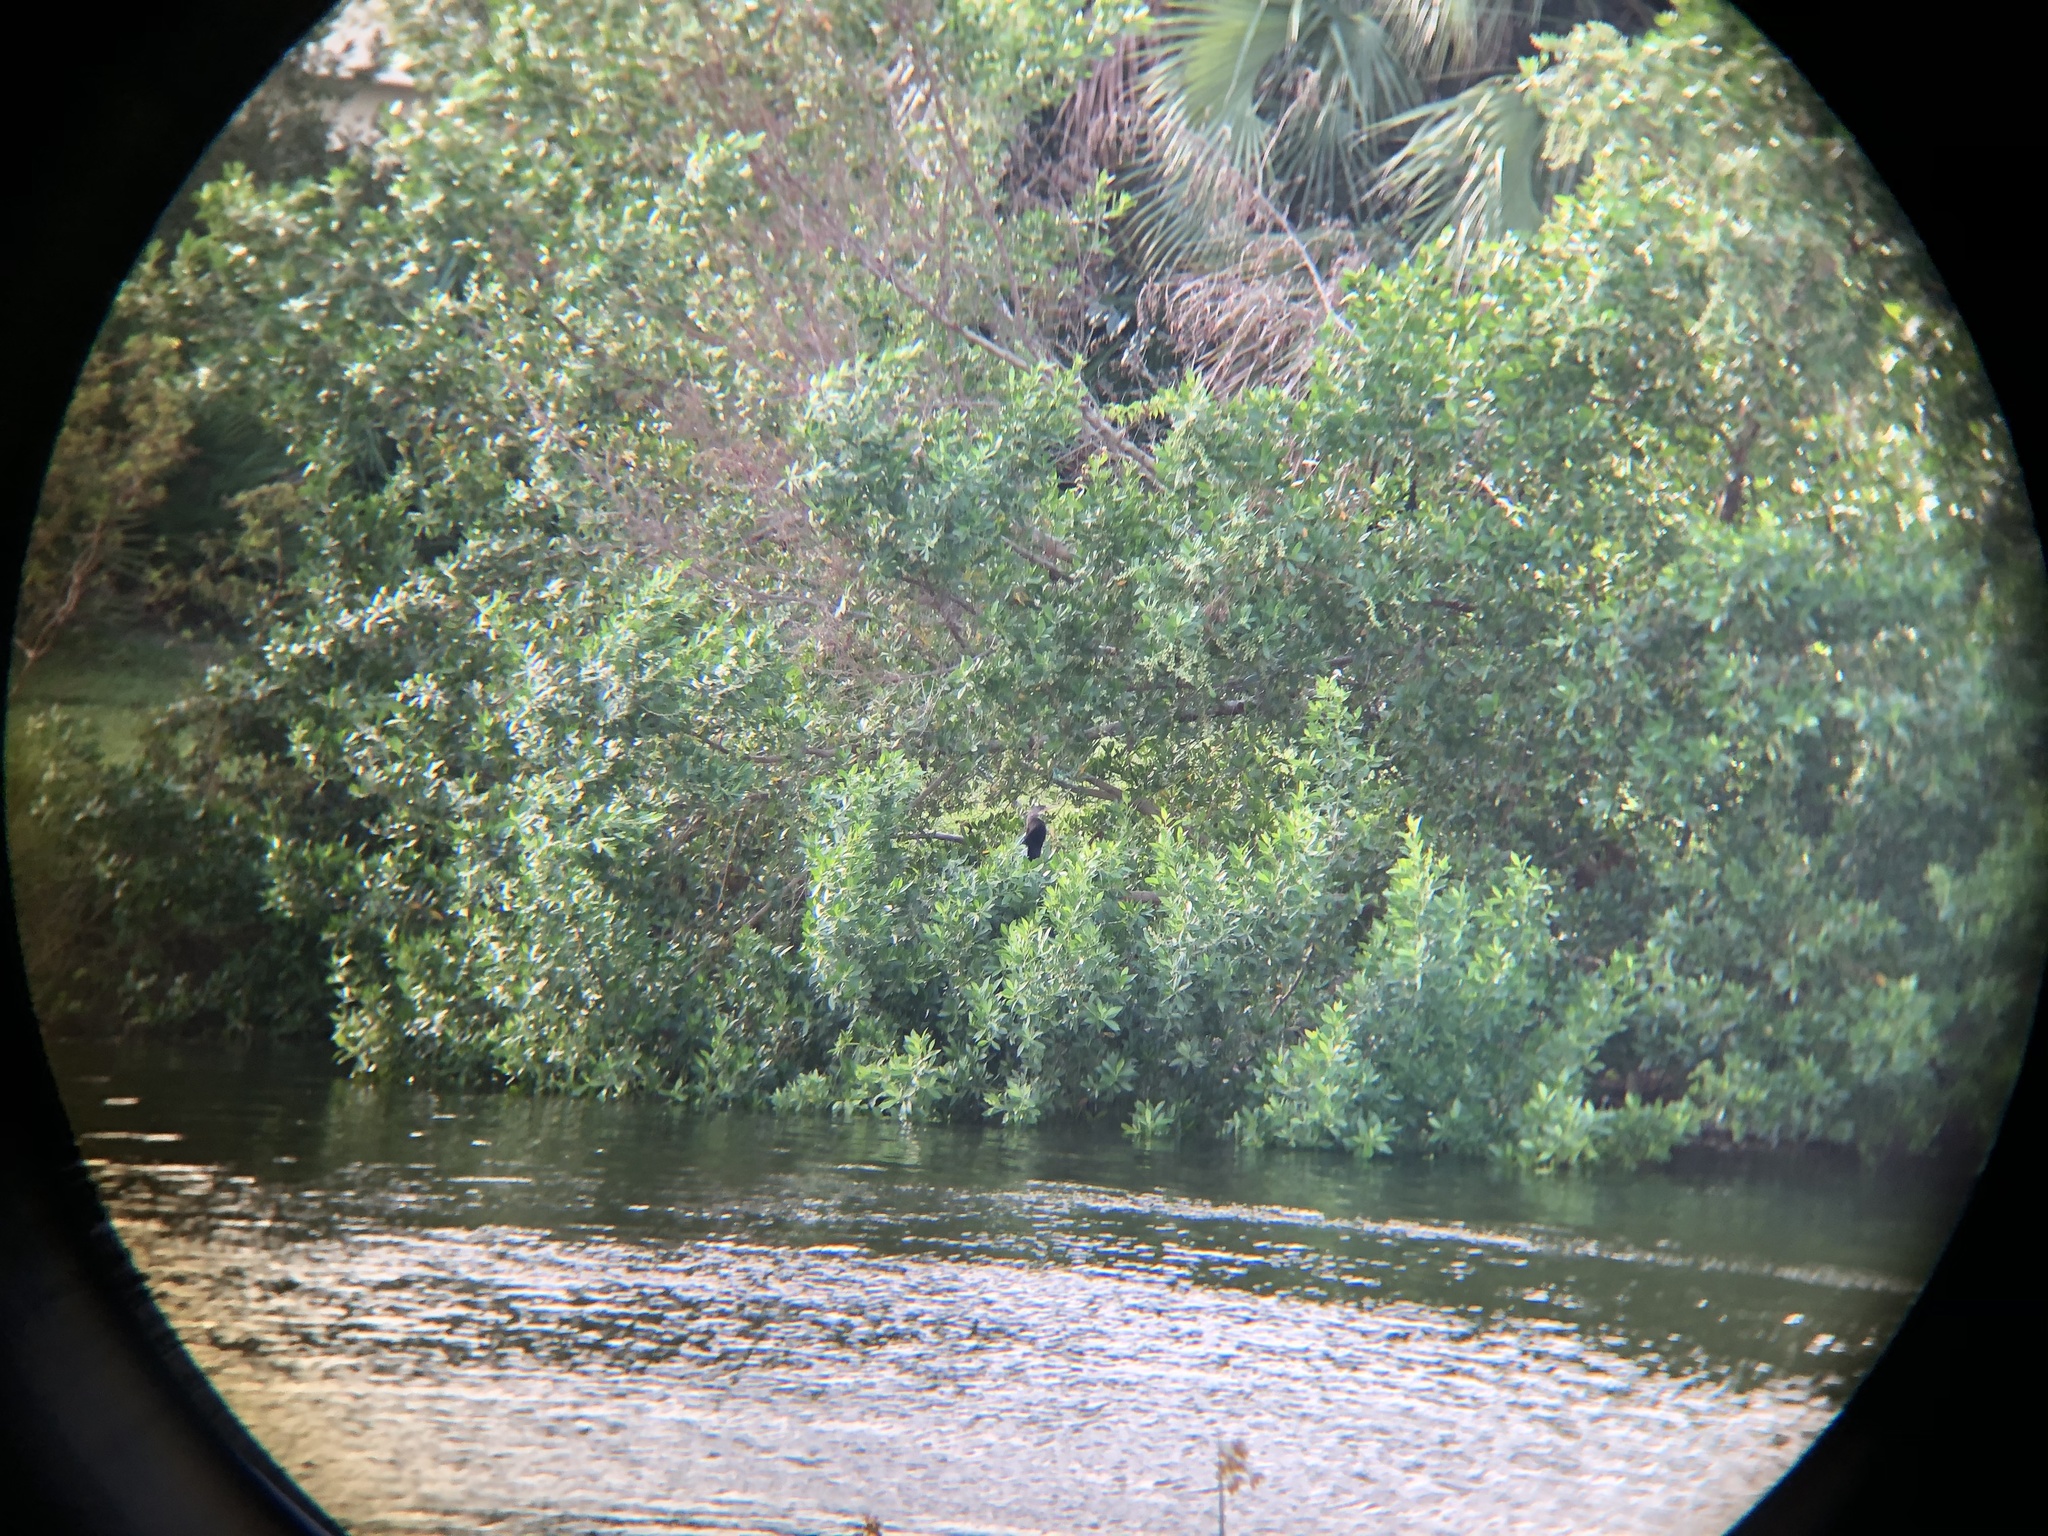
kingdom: Animalia
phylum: Chordata
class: Aves
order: Suliformes
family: Anhingidae
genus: Anhinga
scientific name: Anhinga anhinga
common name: Anhinga
